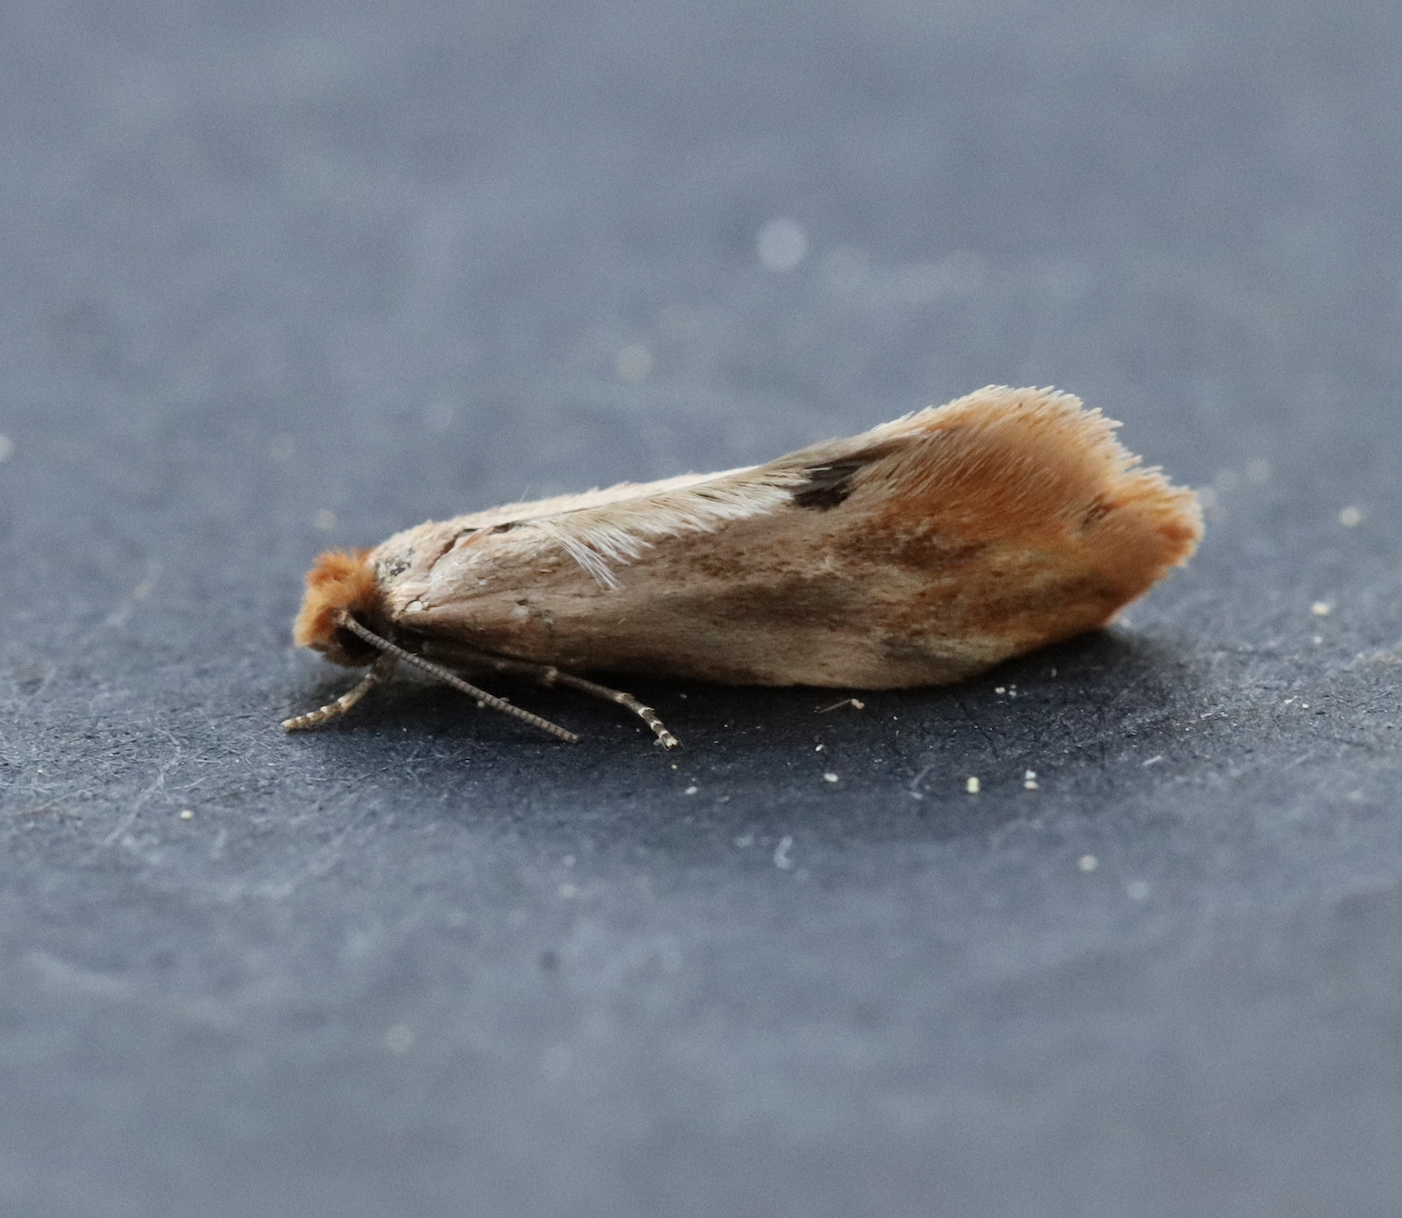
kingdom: Animalia
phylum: Arthropoda
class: Insecta
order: Lepidoptera
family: Tineidae
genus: Tinea
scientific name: Tinea semifulvella
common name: Fulvous clothes
